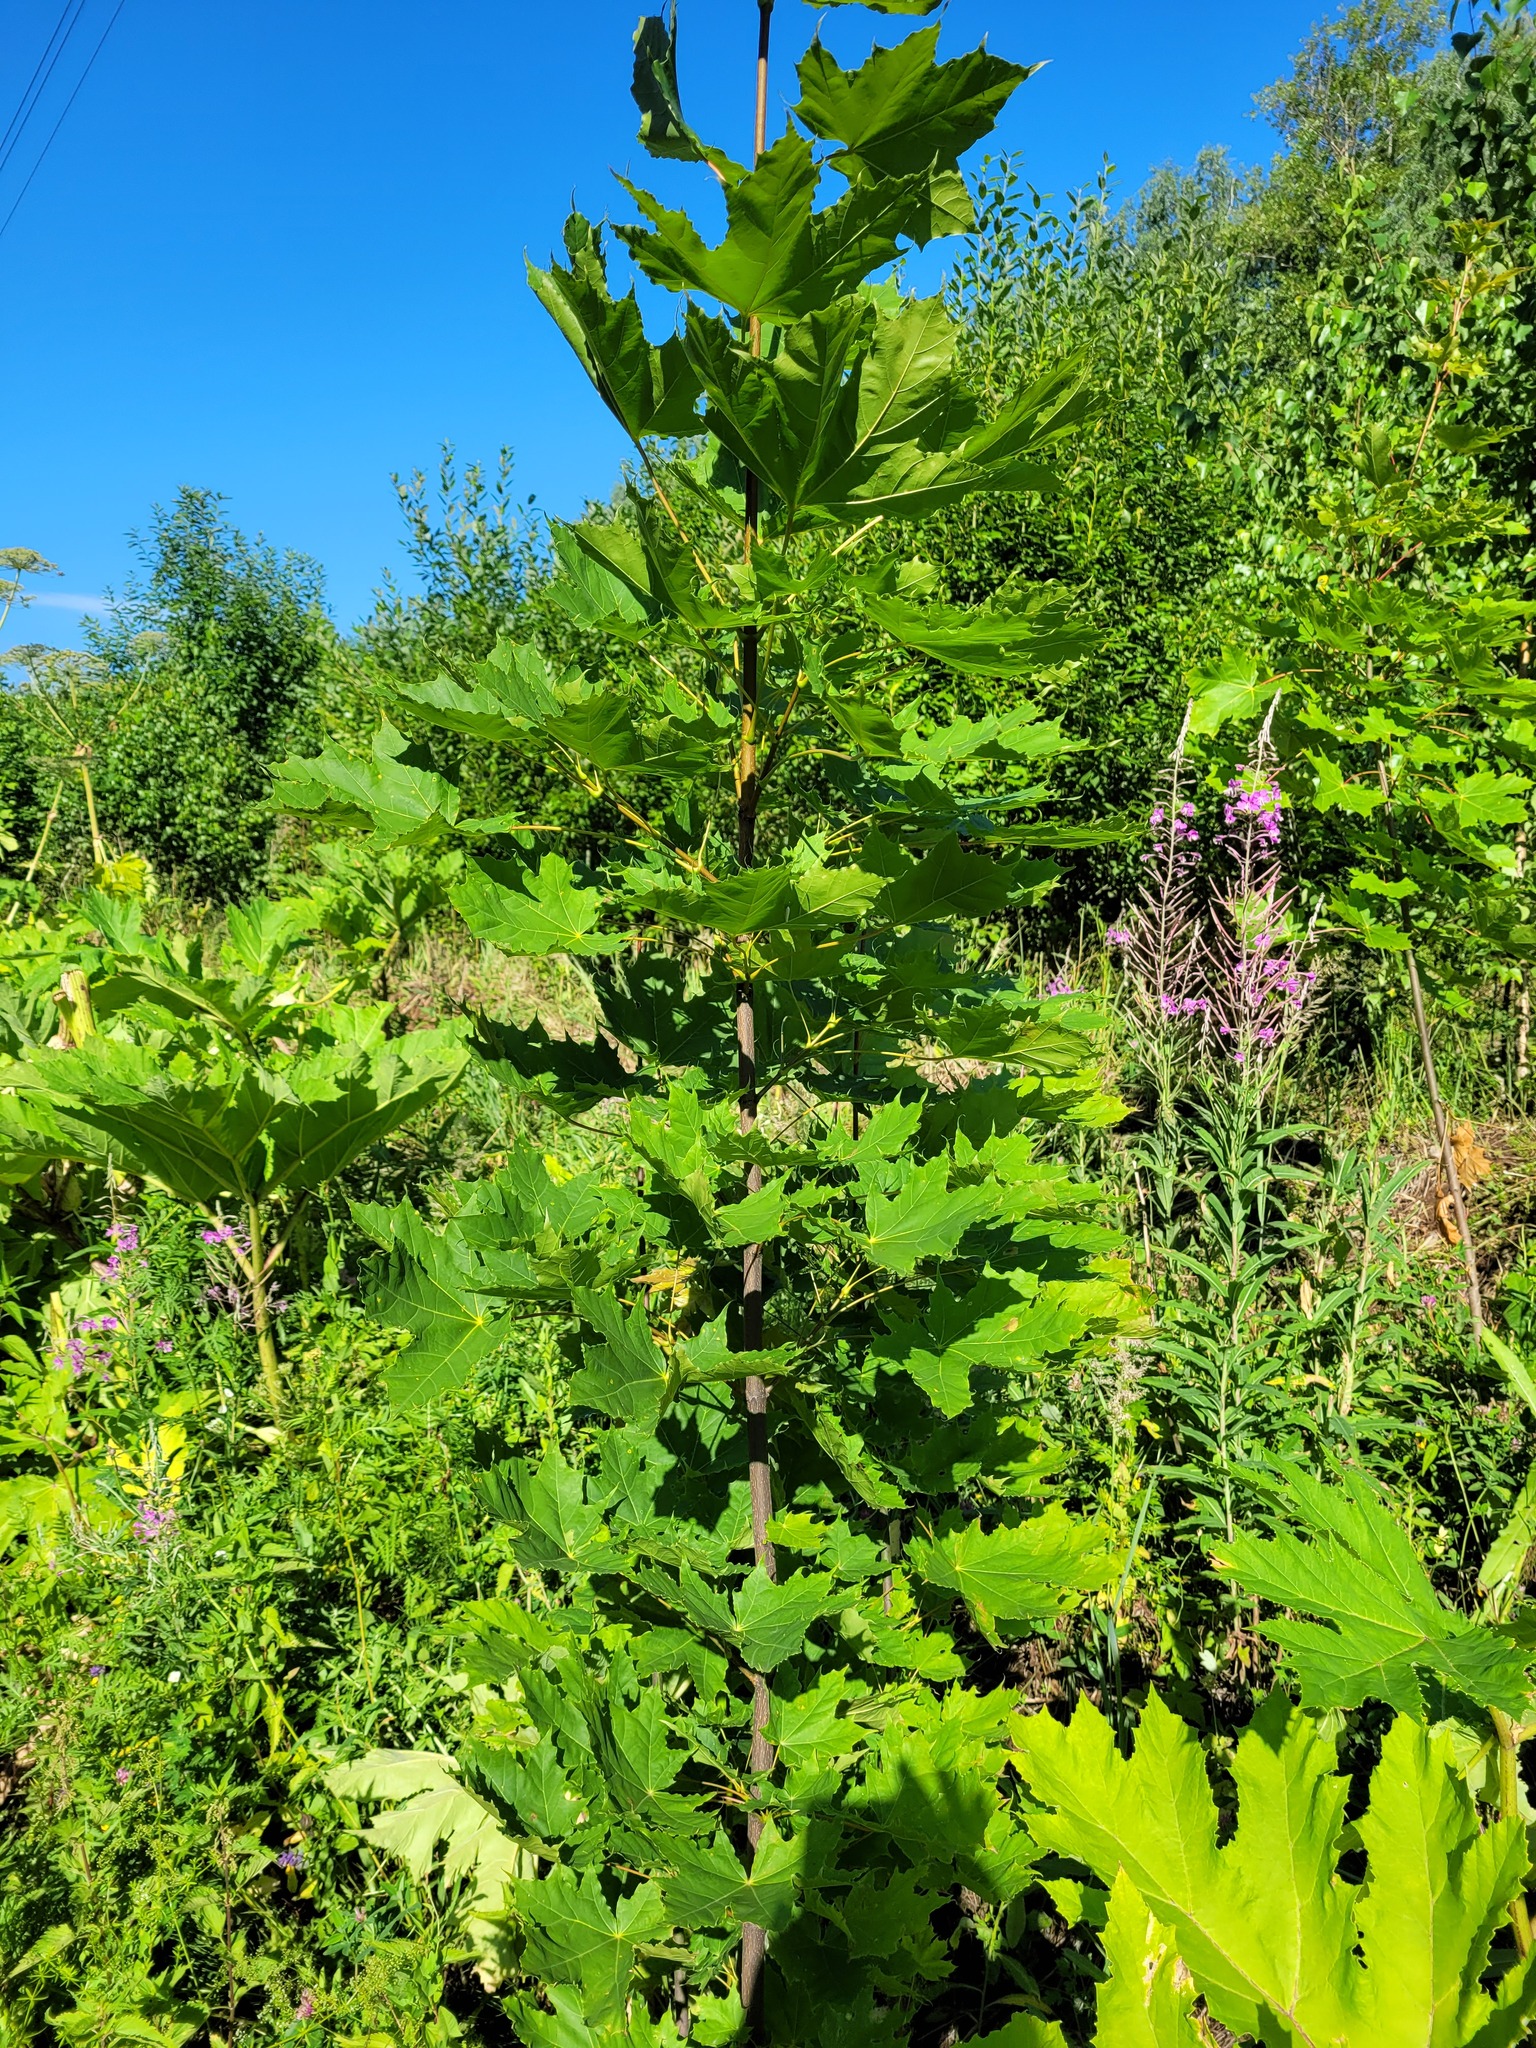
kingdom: Plantae
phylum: Tracheophyta
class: Magnoliopsida
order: Sapindales
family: Sapindaceae
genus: Acer
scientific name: Acer platanoides
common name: Norway maple
